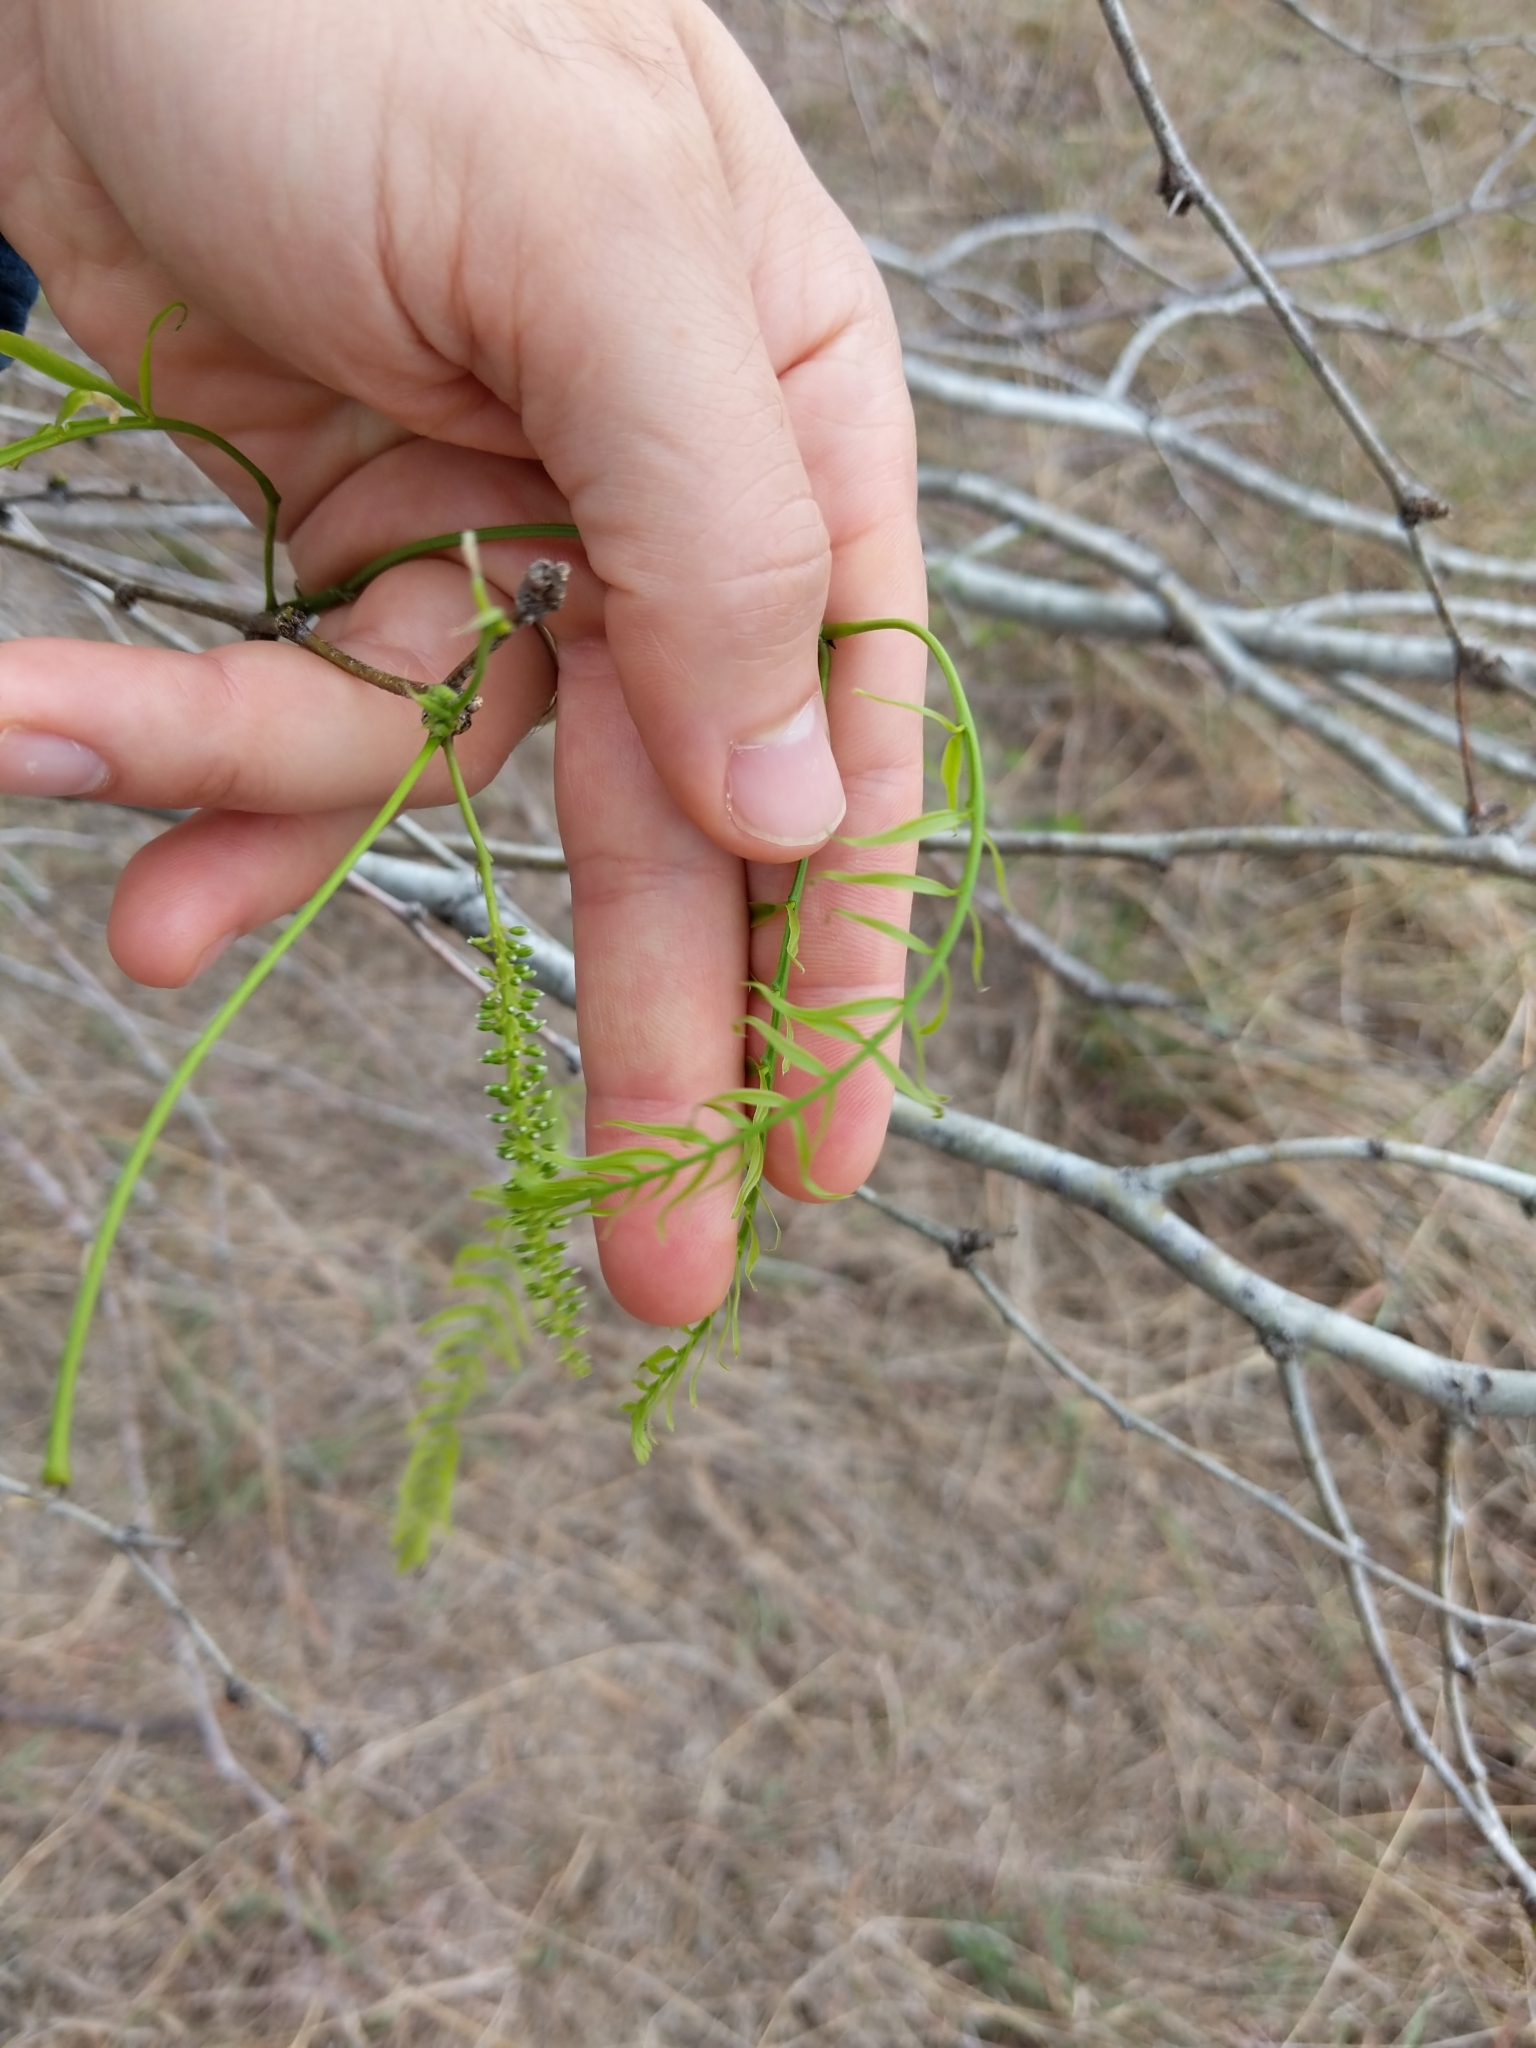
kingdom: Plantae
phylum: Tracheophyta
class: Magnoliopsida
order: Fabales
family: Fabaceae
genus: Prosopis
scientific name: Prosopis glandulosa
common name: Honey mesquite
